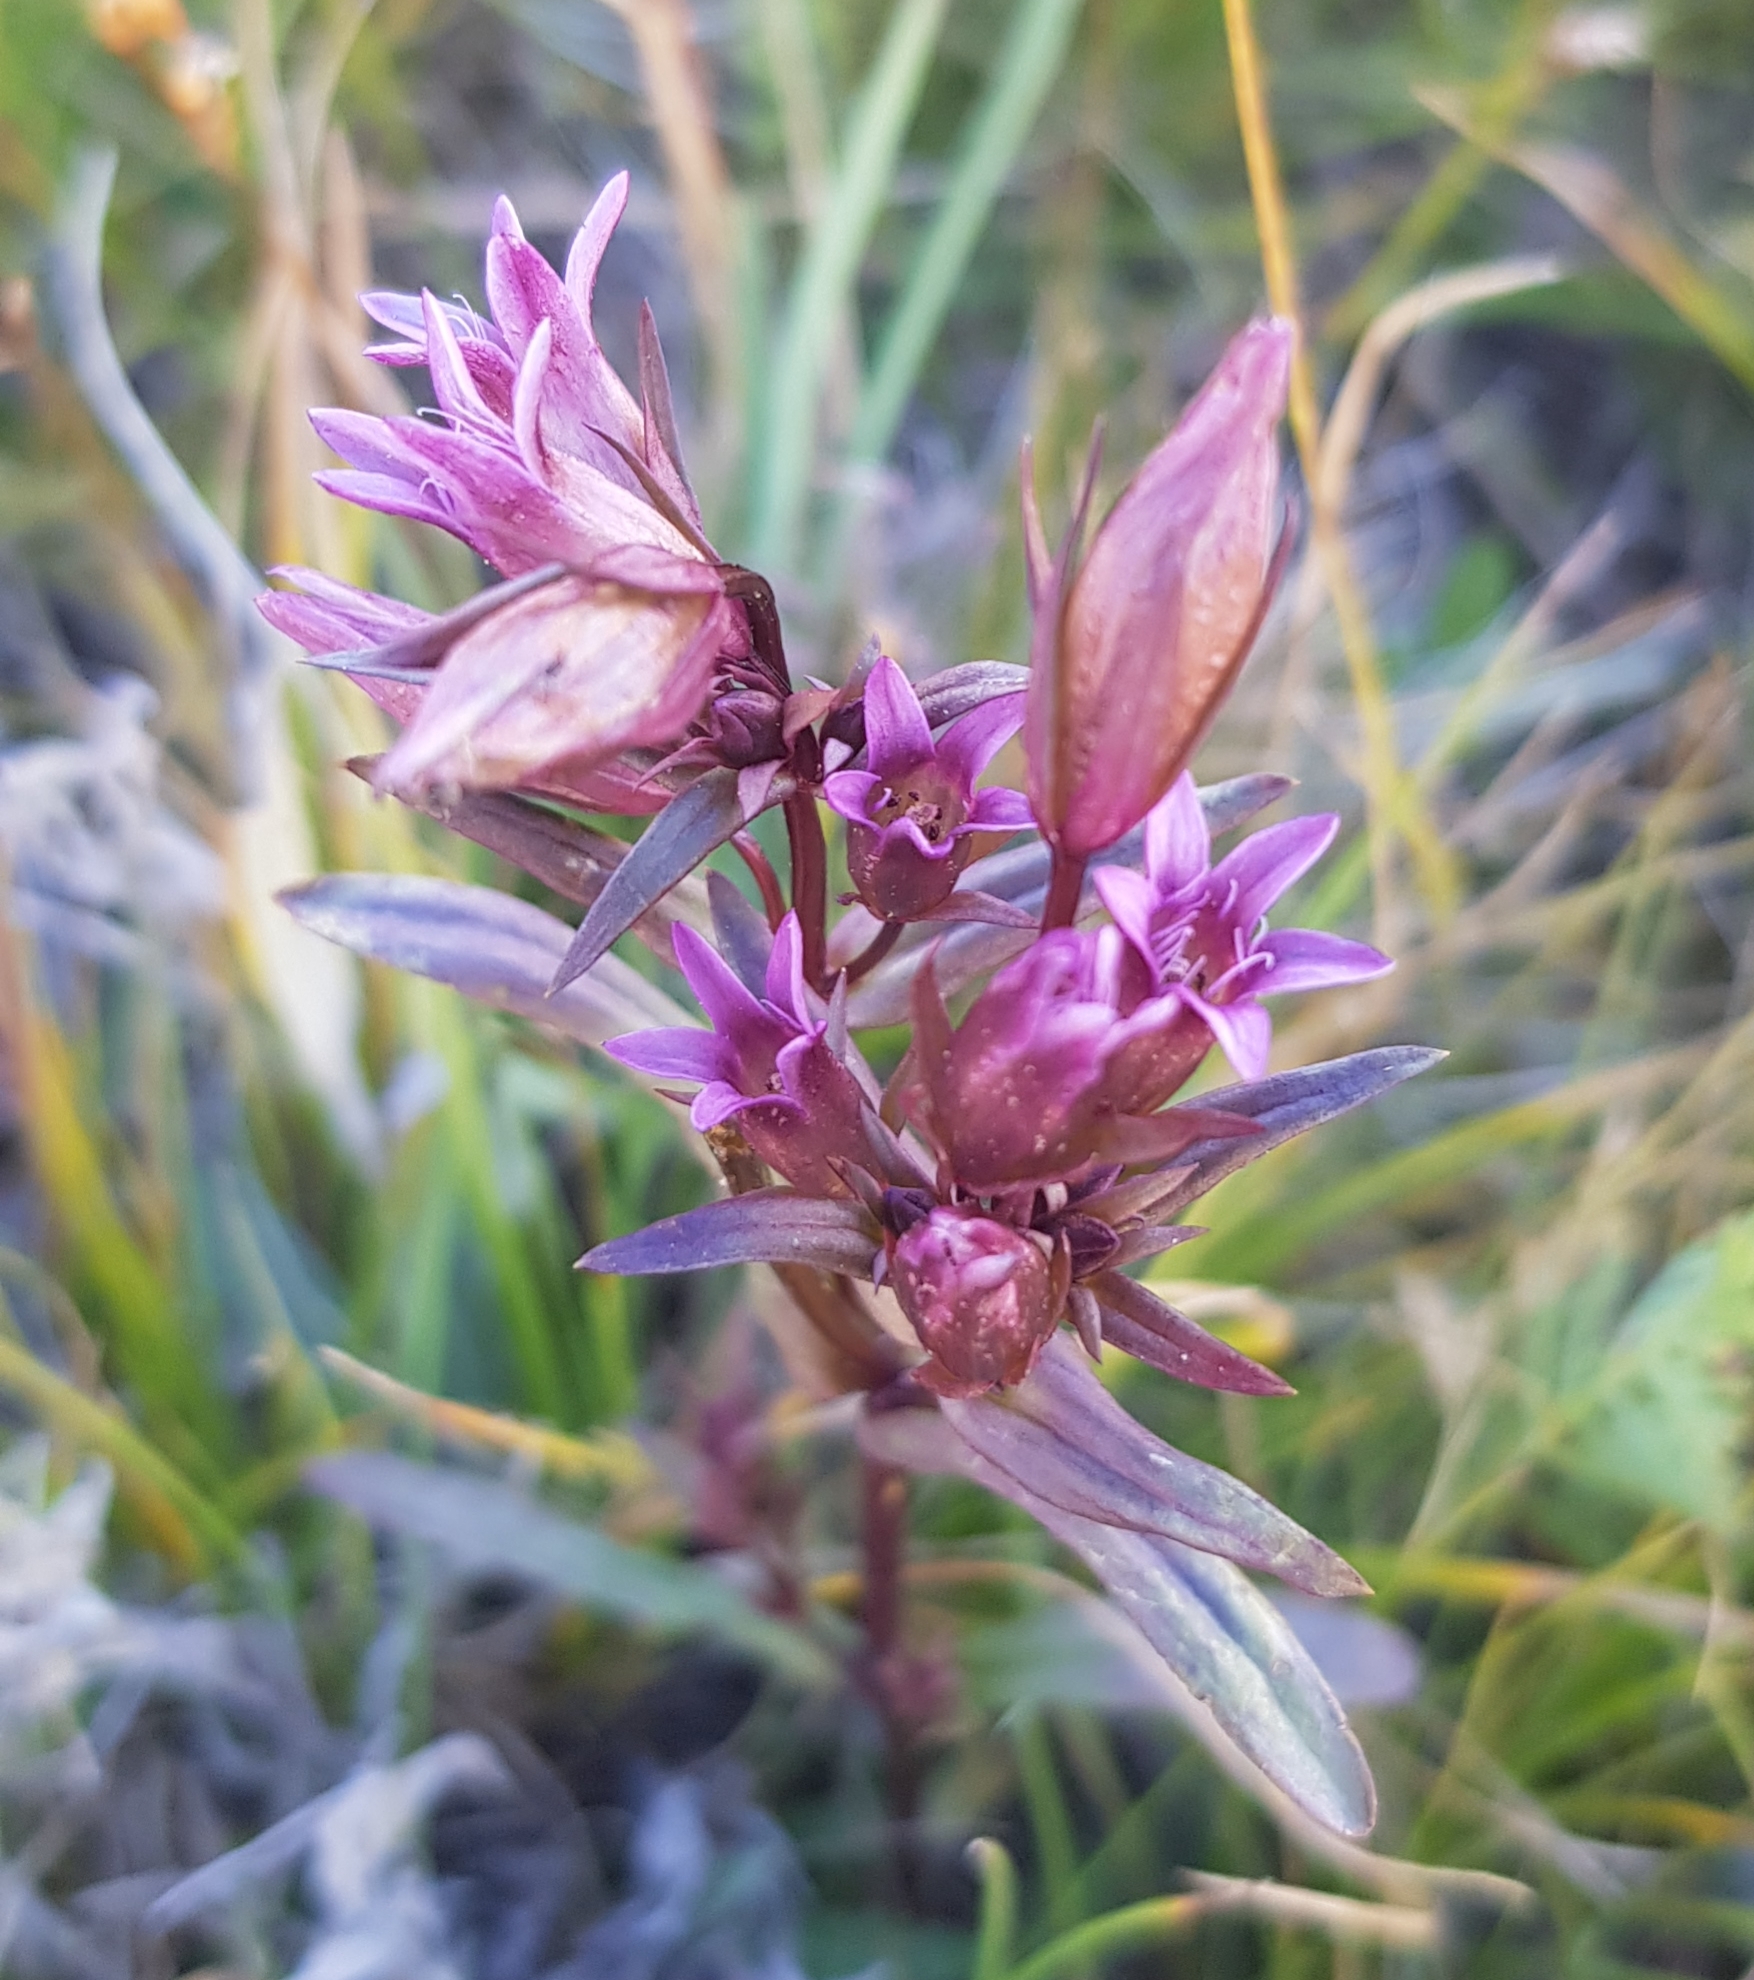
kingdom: Plantae
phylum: Tracheophyta
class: Magnoliopsida
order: Gentianales
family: Gentianaceae
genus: Gentianella
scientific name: Gentianella amarella
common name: Autumn gentian
